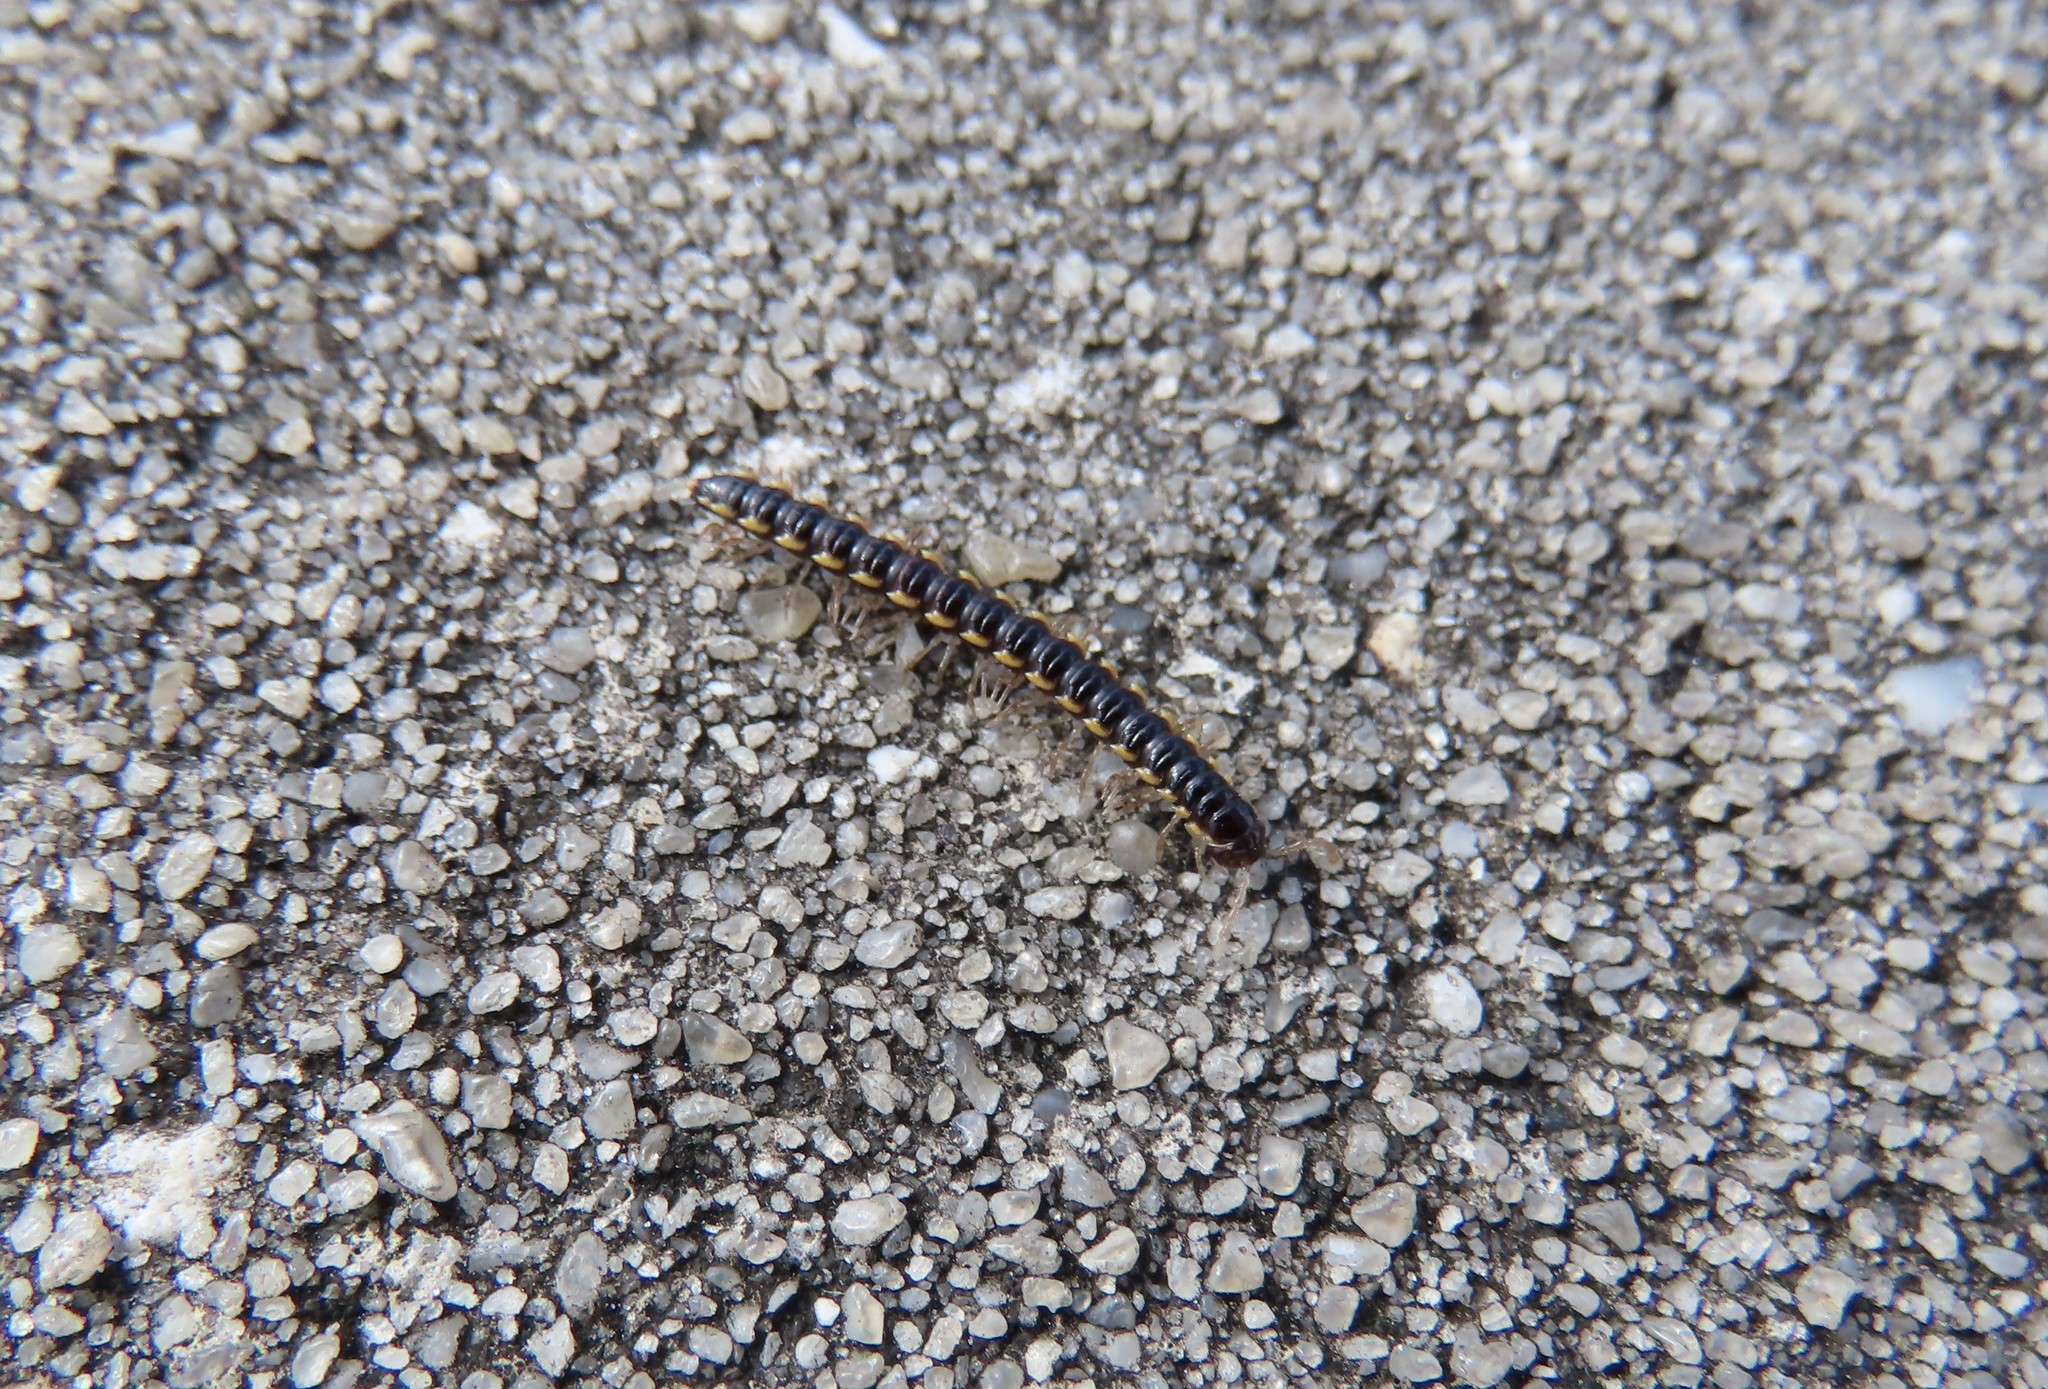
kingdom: Animalia
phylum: Arthropoda
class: Diplopoda
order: Polydesmida
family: Paradoxosomatidae
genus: Orthomorpha
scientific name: Orthomorpha coarctata
